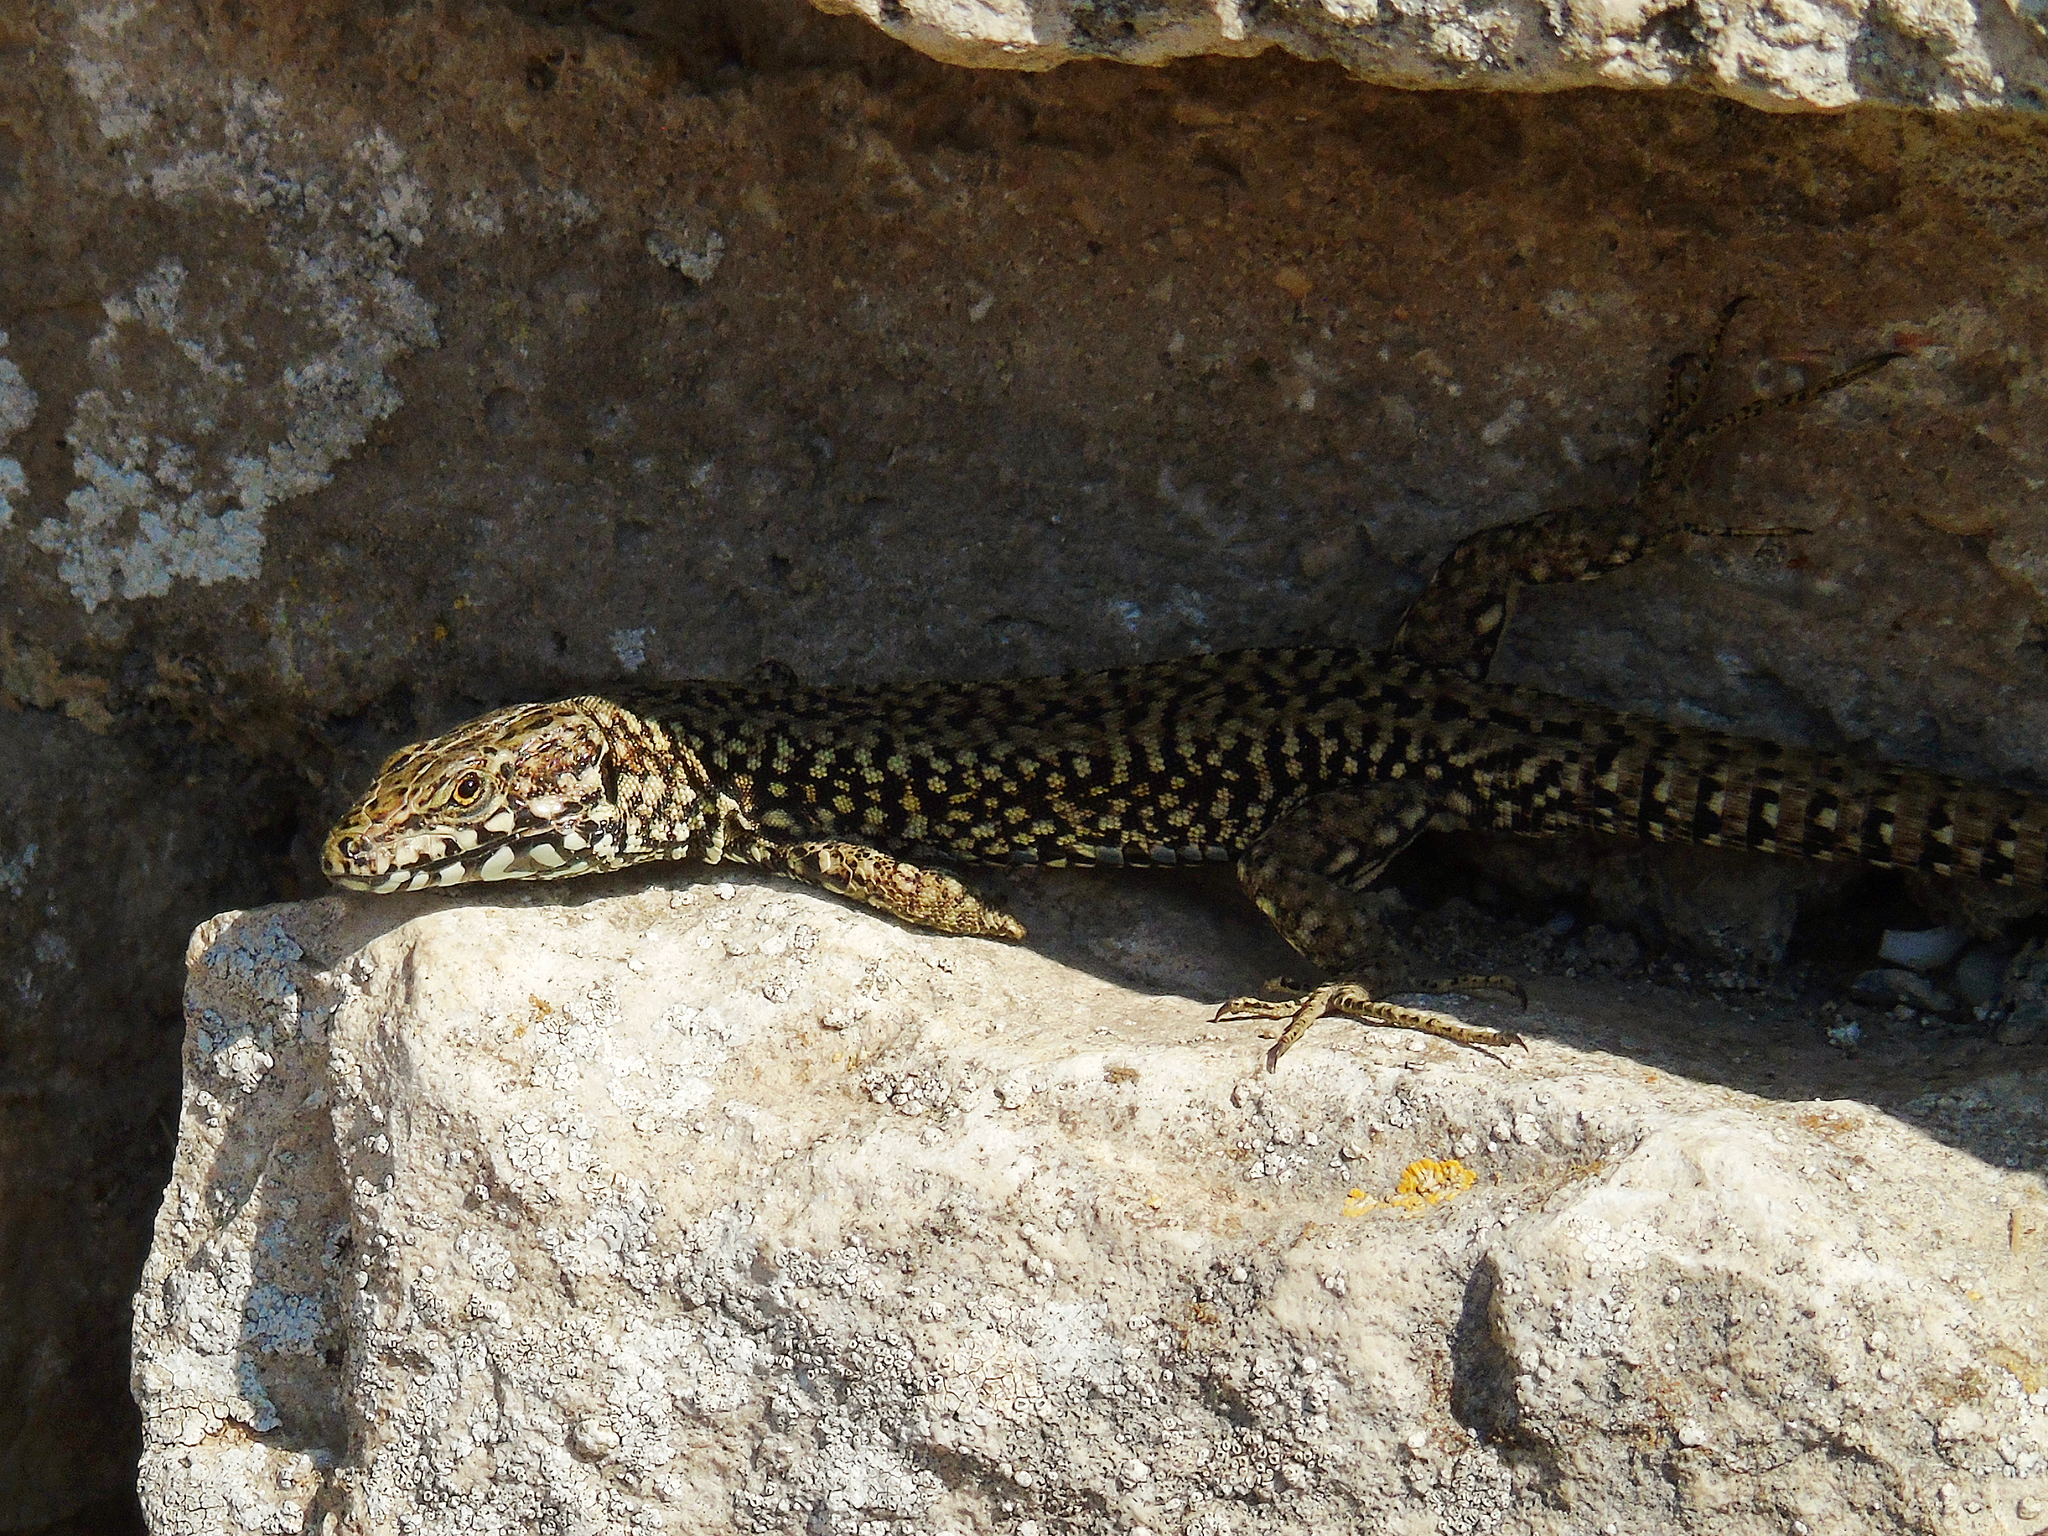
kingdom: Animalia
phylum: Chordata
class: Squamata
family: Lacertidae
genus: Podarcis
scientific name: Podarcis muralis
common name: Common wall lizard
